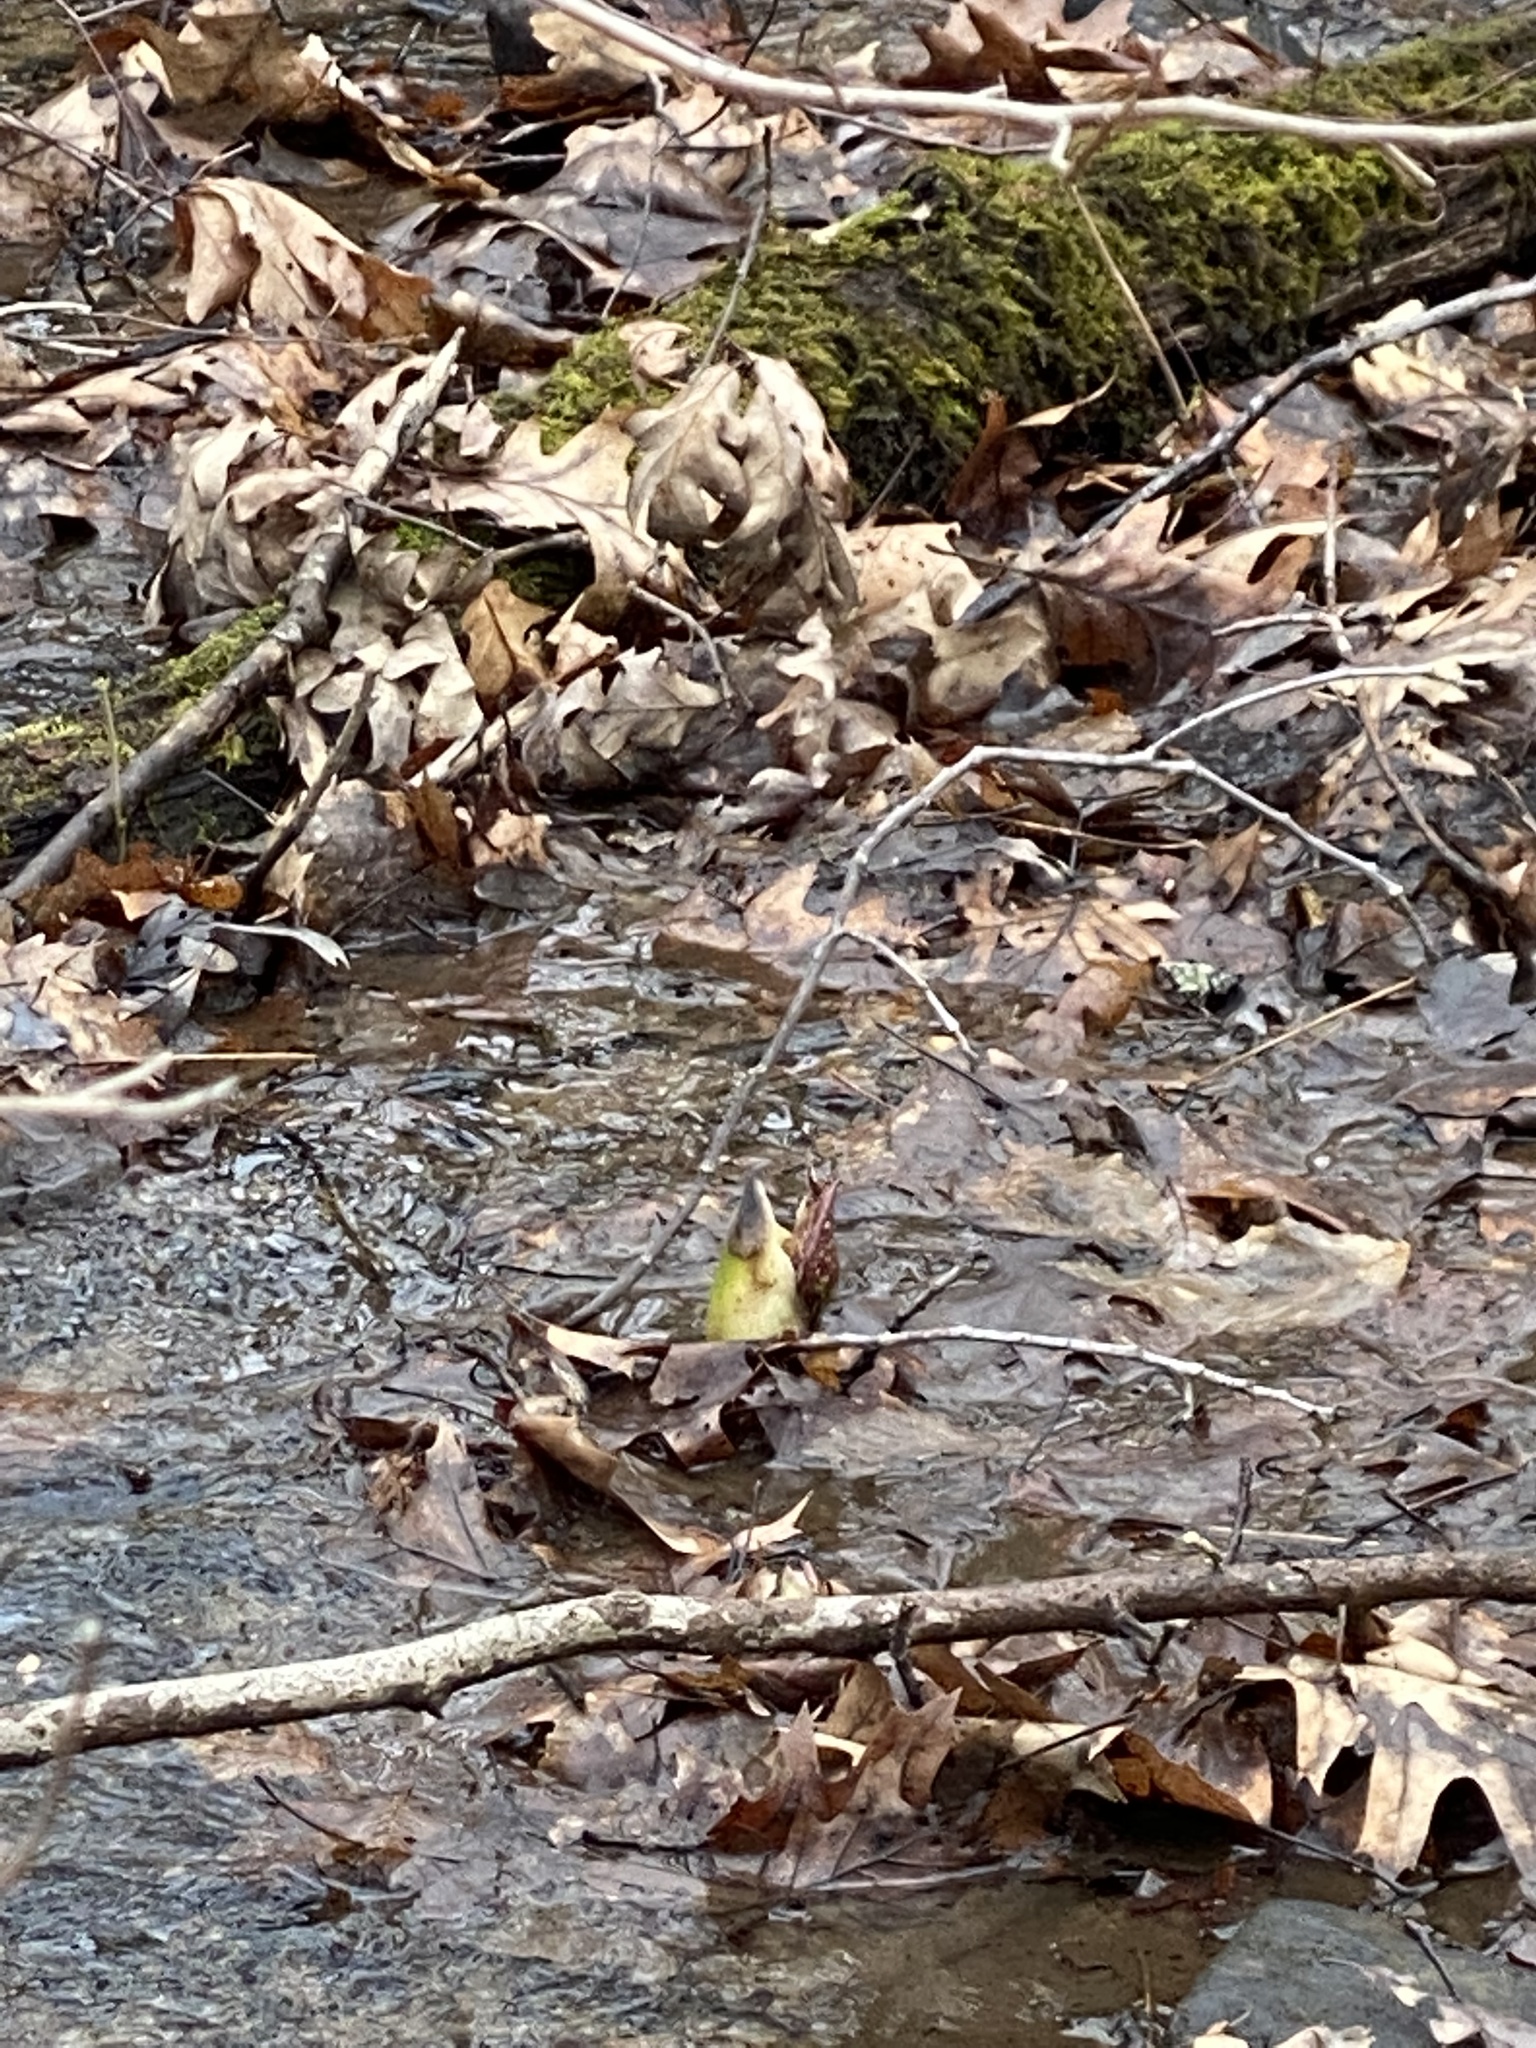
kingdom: Plantae
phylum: Tracheophyta
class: Liliopsida
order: Alismatales
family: Araceae
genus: Symplocarpus
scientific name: Symplocarpus foetidus
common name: Eastern skunk cabbage
